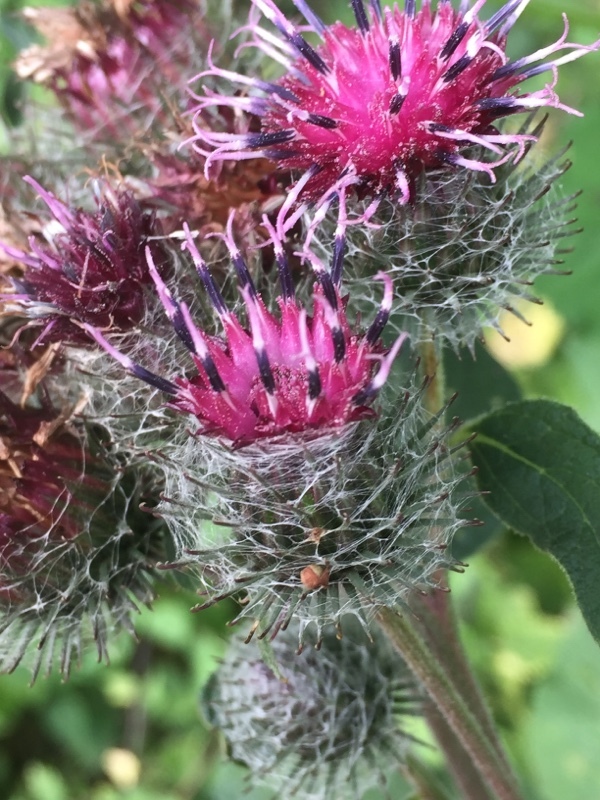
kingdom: Plantae
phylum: Tracheophyta
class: Magnoliopsida
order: Asterales
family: Asteraceae
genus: Arctium
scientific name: Arctium tomentosum
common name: Woolly burdock
